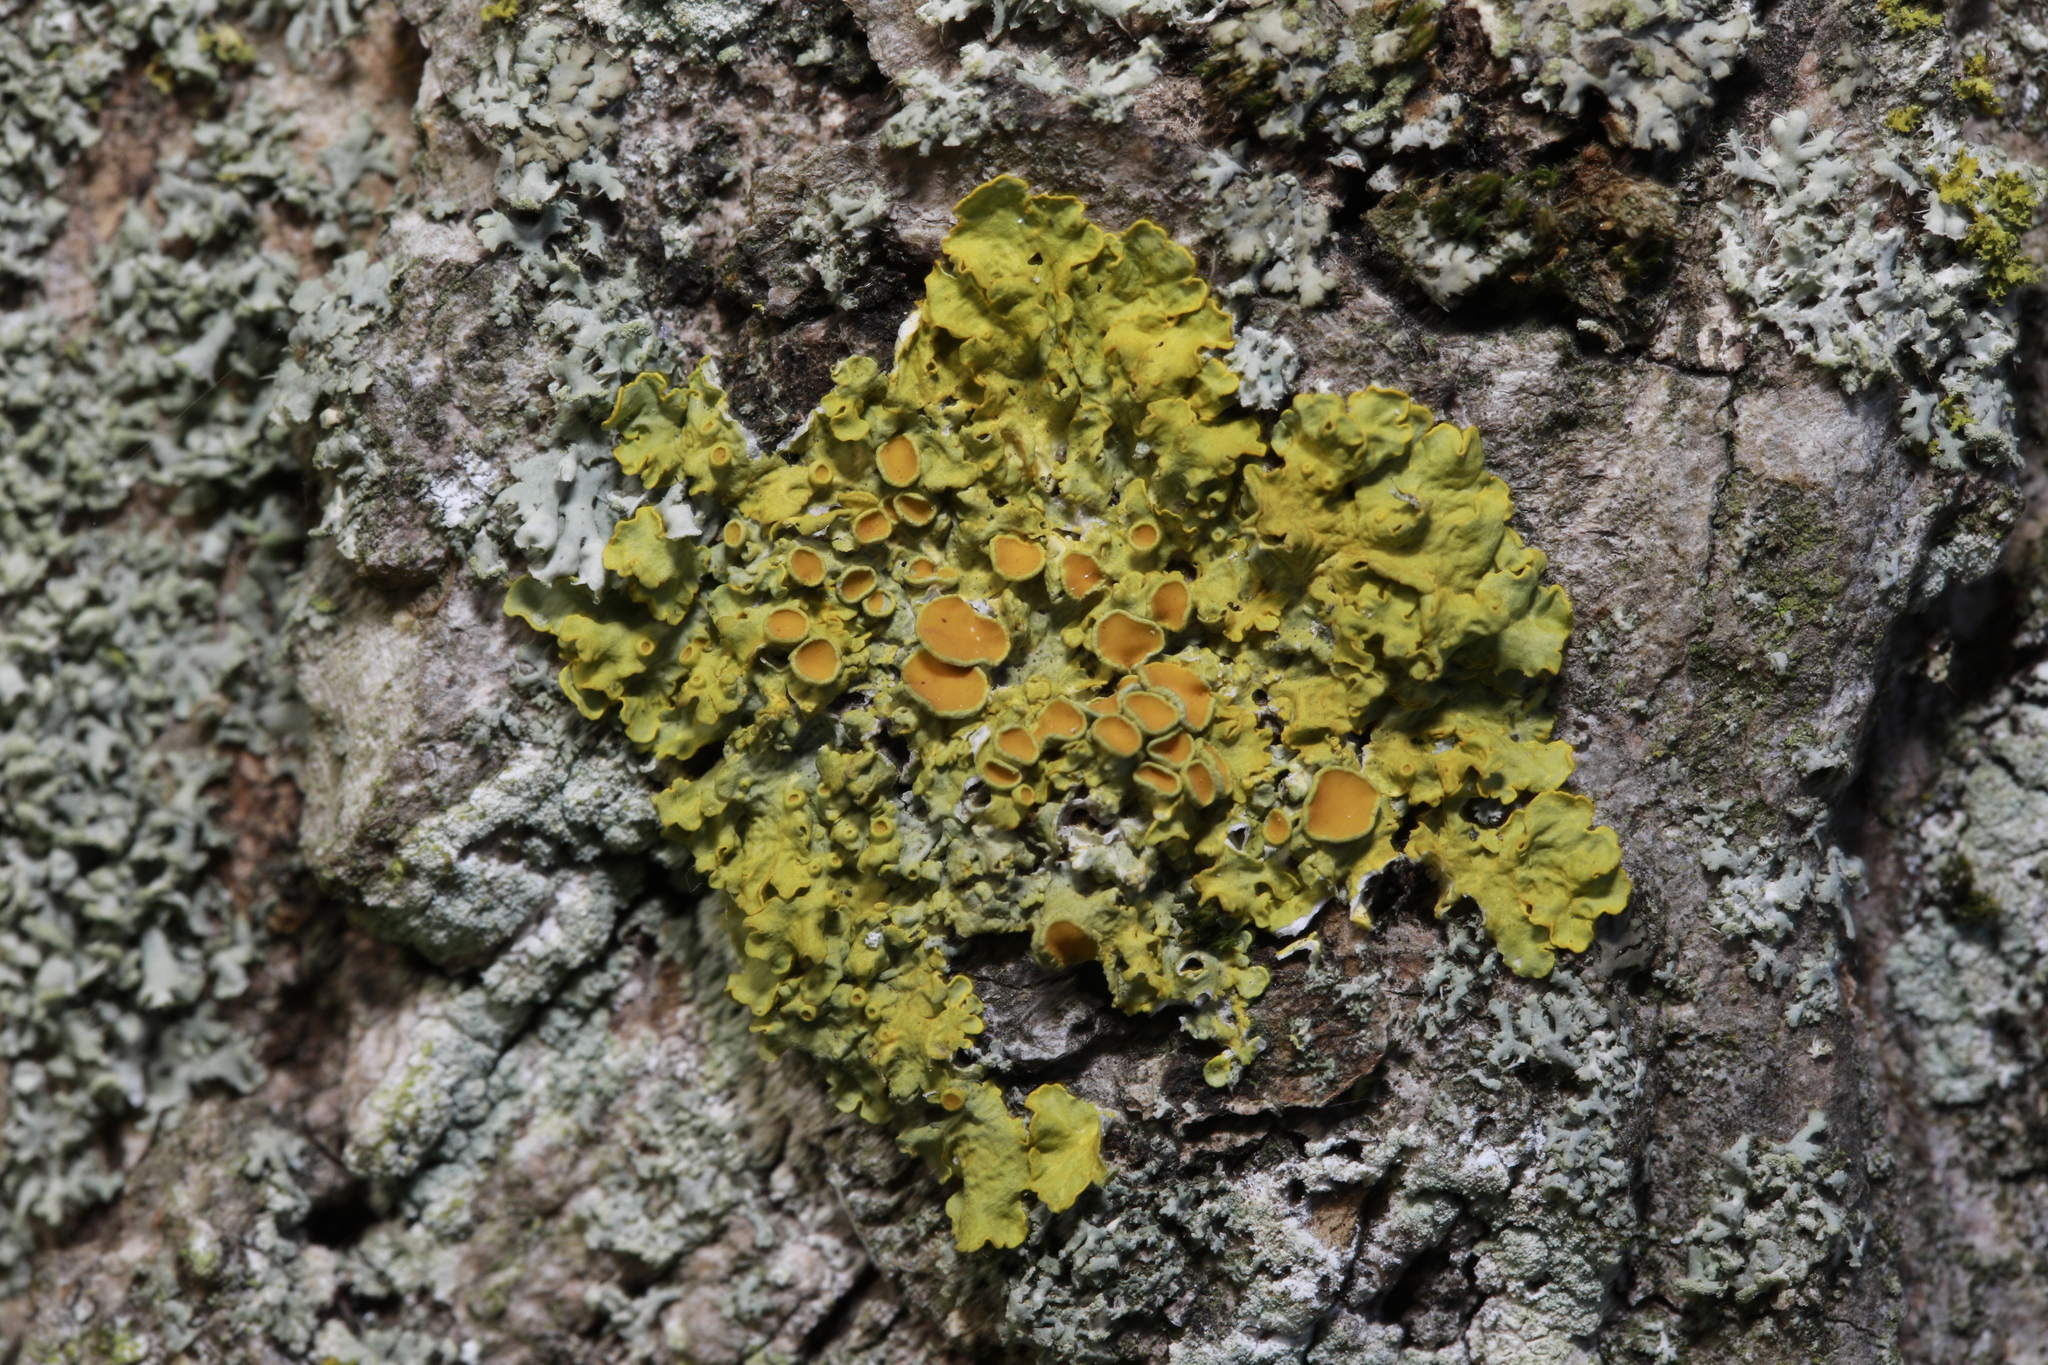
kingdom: Fungi
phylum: Ascomycota
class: Lecanoromycetes
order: Teloschistales
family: Teloschistaceae
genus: Xanthoria
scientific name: Xanthoria parietina
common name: Common orange lichen
